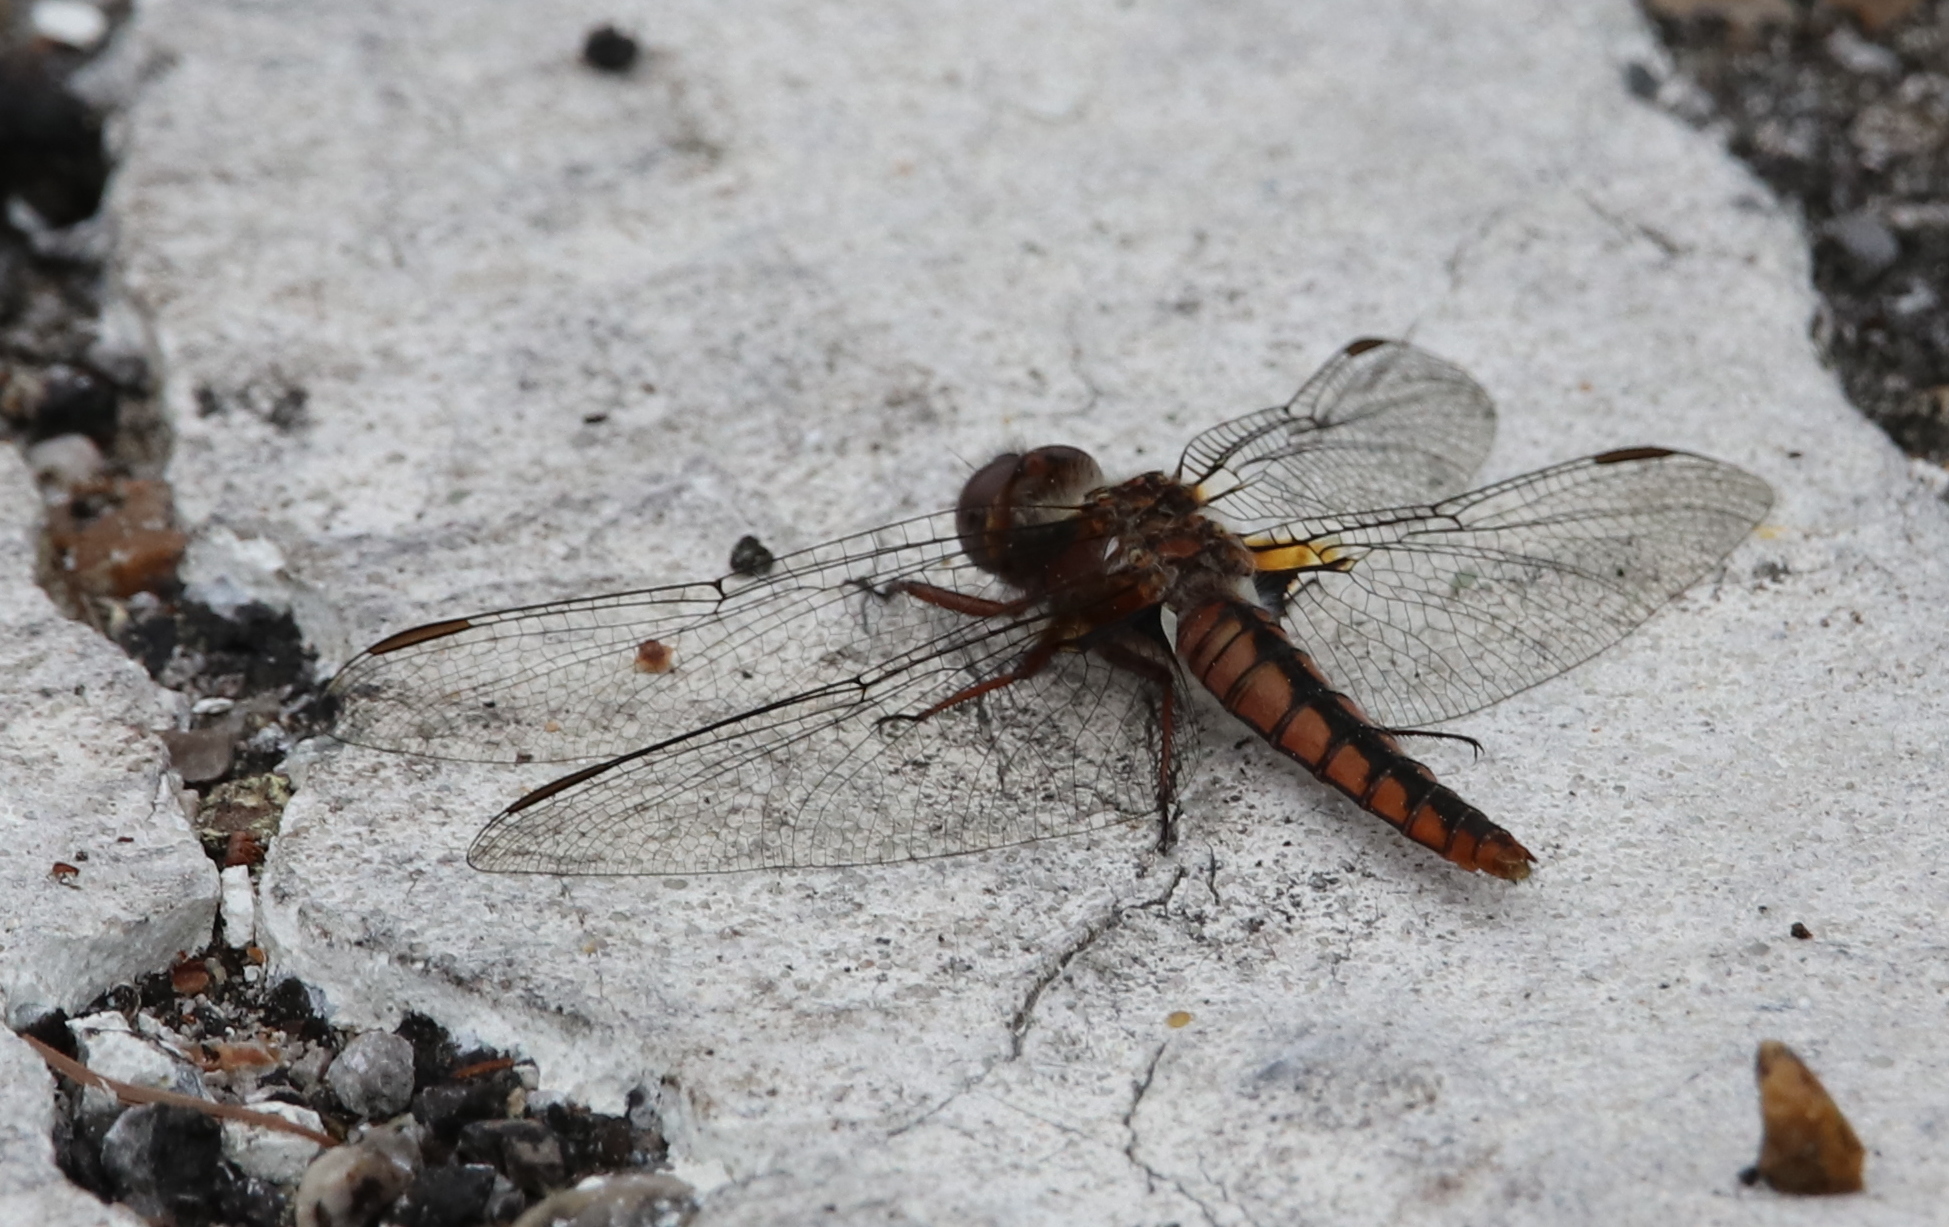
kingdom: Animalia
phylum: Arthropoda
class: Insecta
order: Odonata
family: Libellulidae
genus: Ladona
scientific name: Ladona deplanata
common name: Blue corporal
